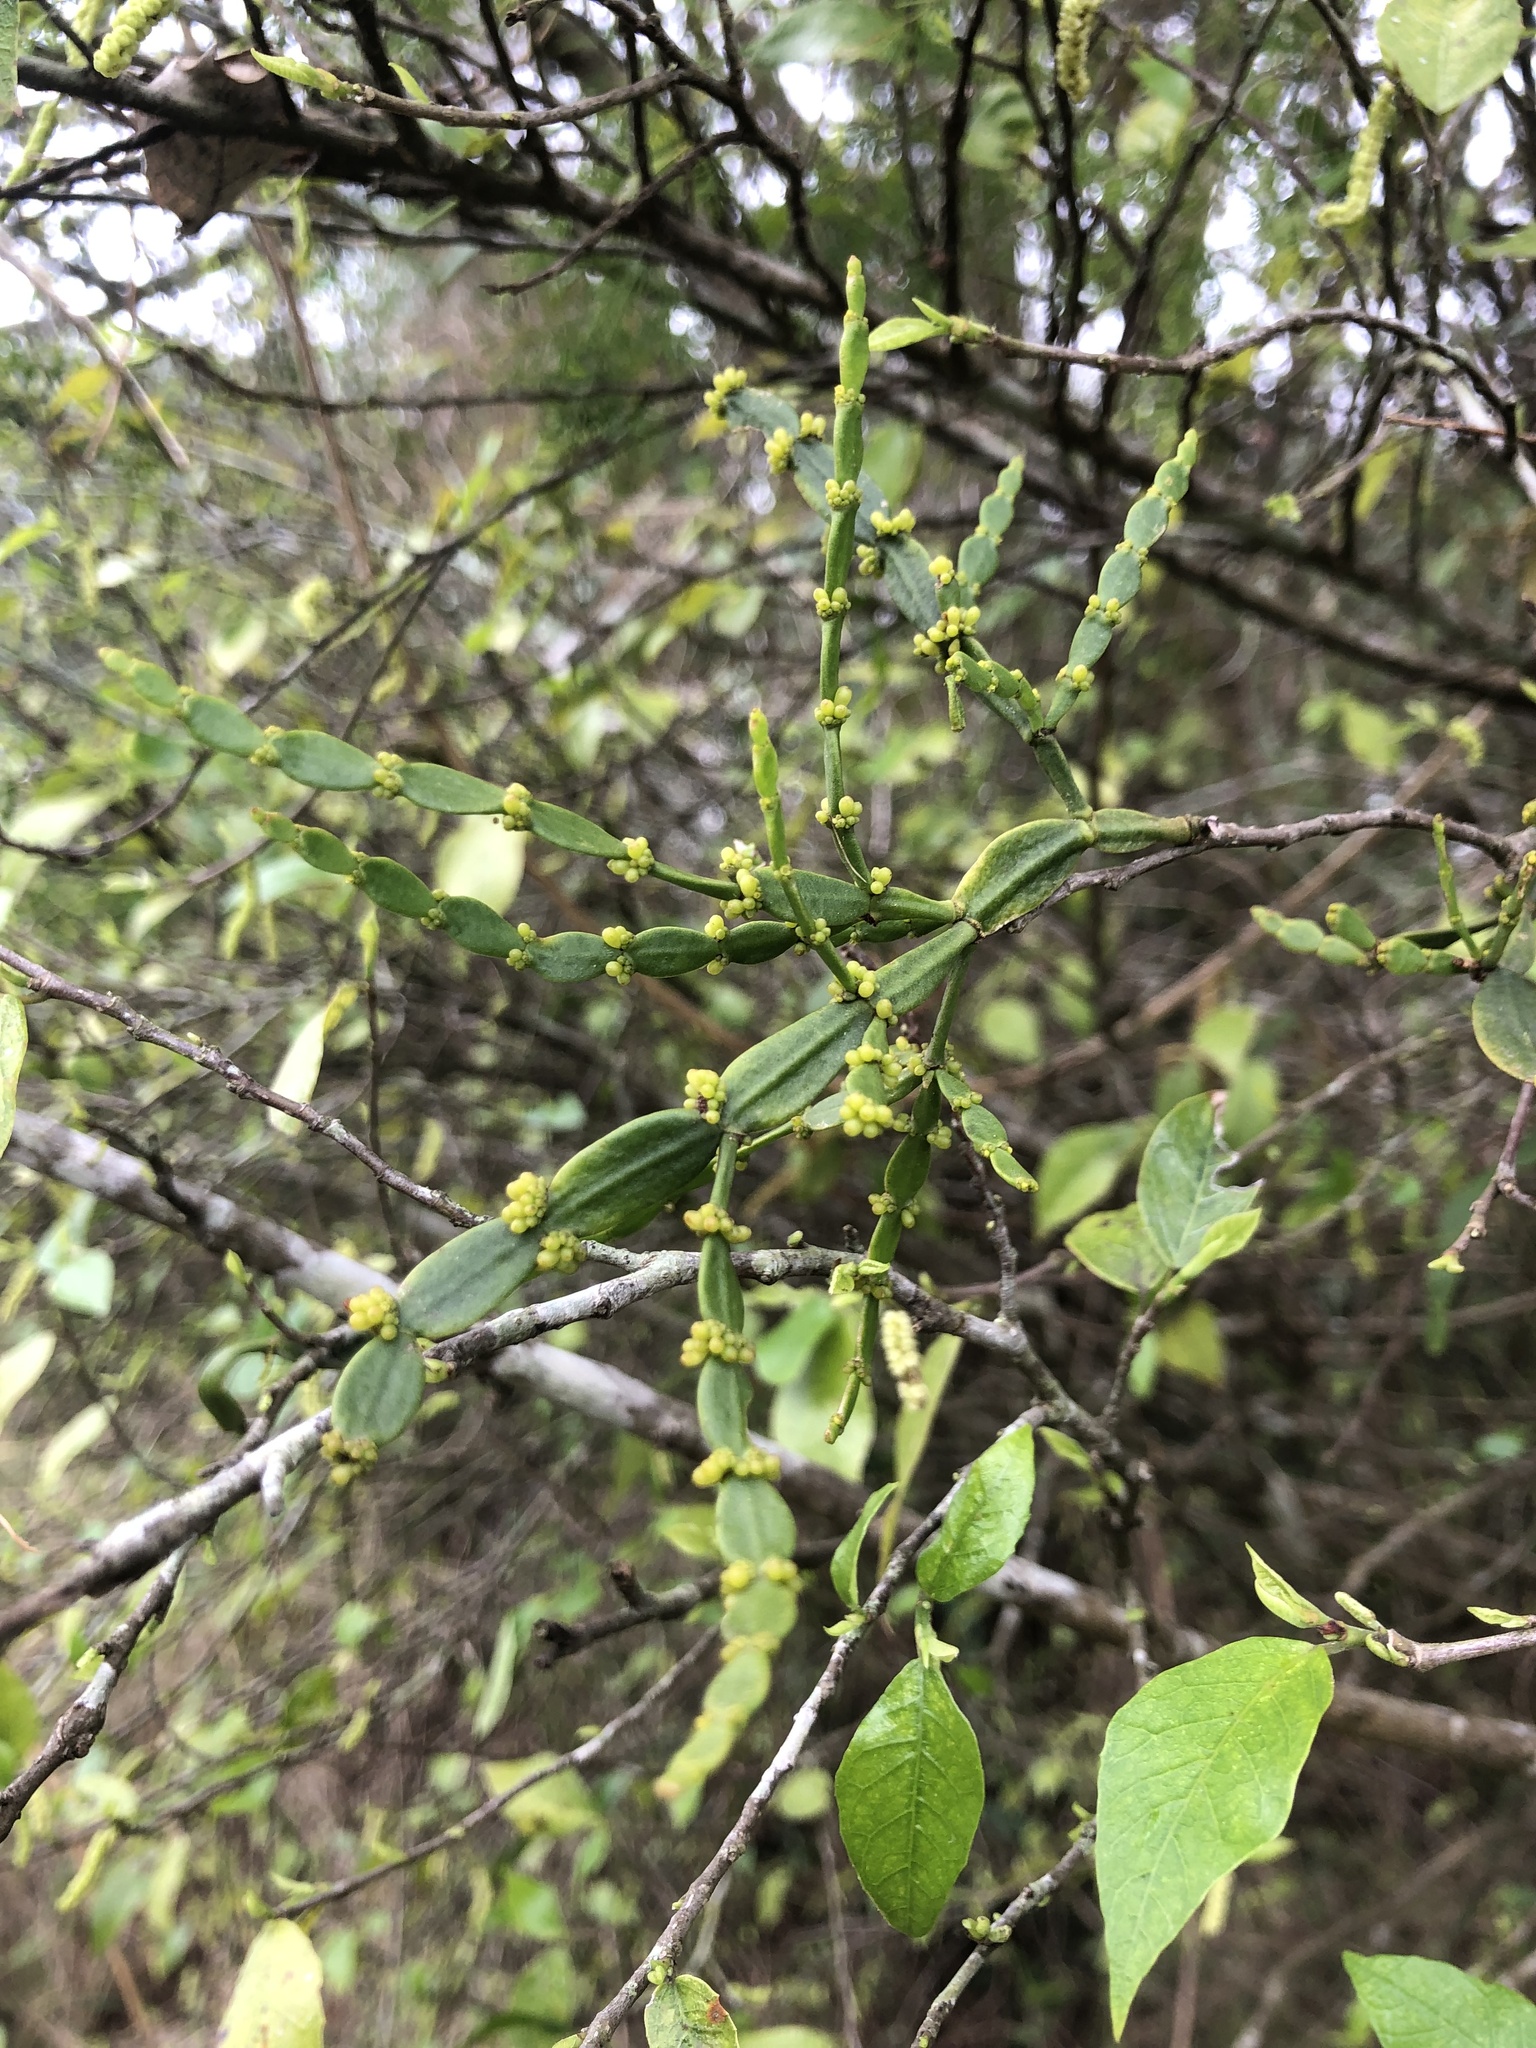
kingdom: Plantae
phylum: Tracheophyta
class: Magnoliopsida
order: Santalales
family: Viscaceae
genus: Korthalsella
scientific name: Korthalsella rubra
